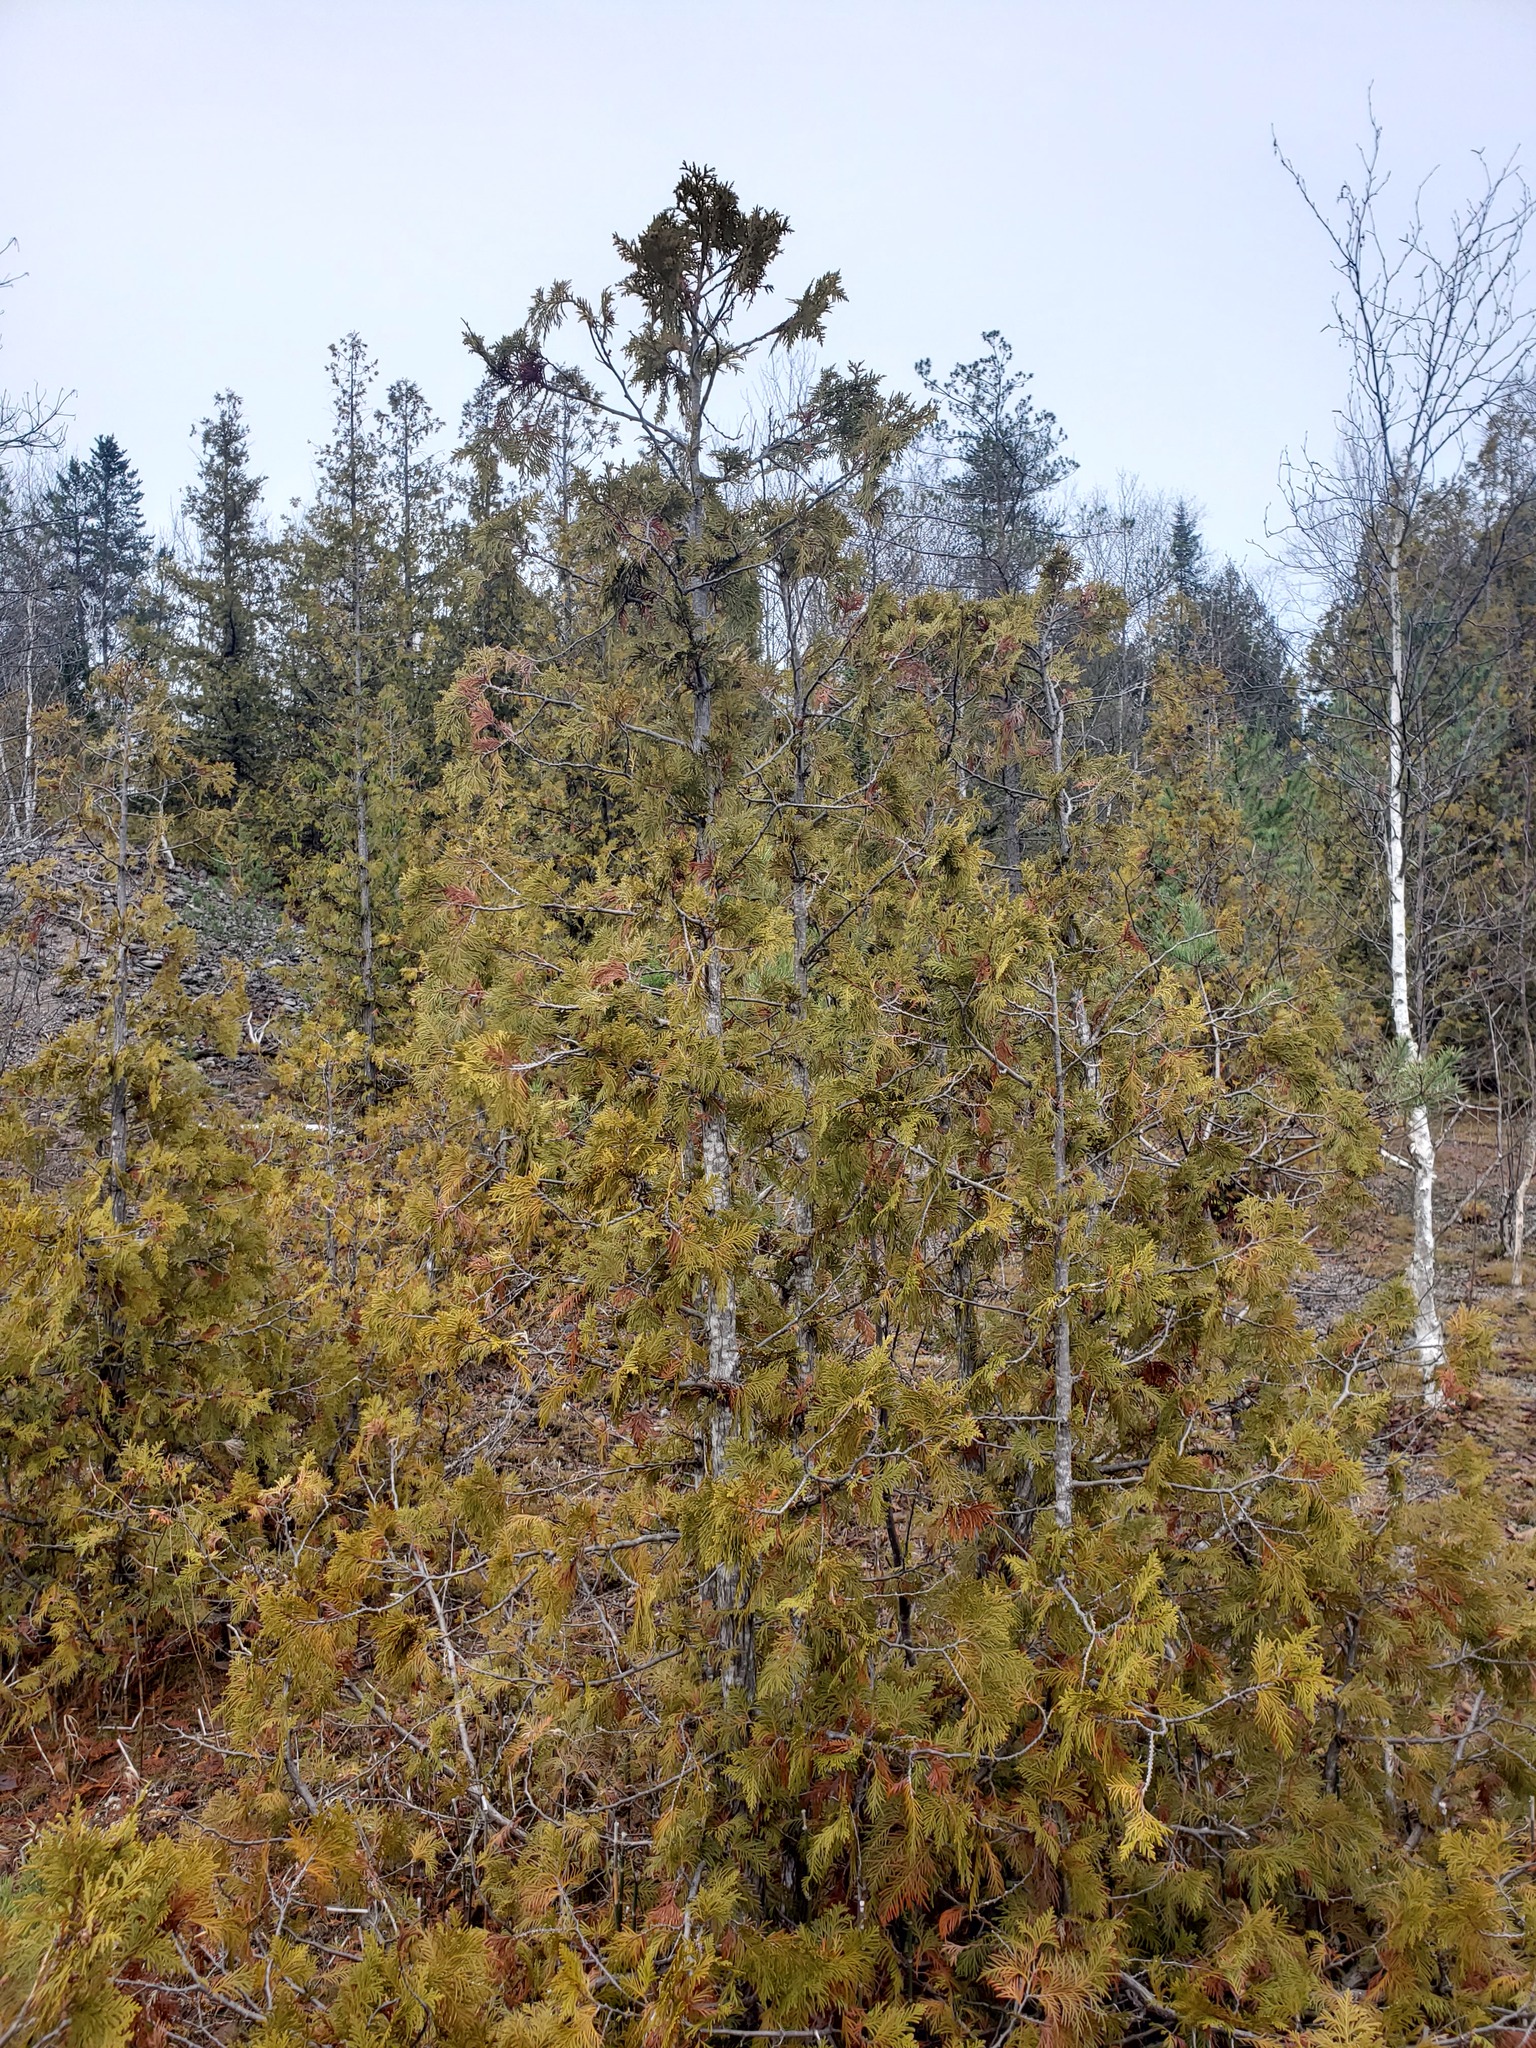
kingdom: Plantae
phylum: Tracheophyta
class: Pinopsida
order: Pinales
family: Cupressaceae
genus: Thuja
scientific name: Thuja occidentalis
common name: Northern white-cedar
